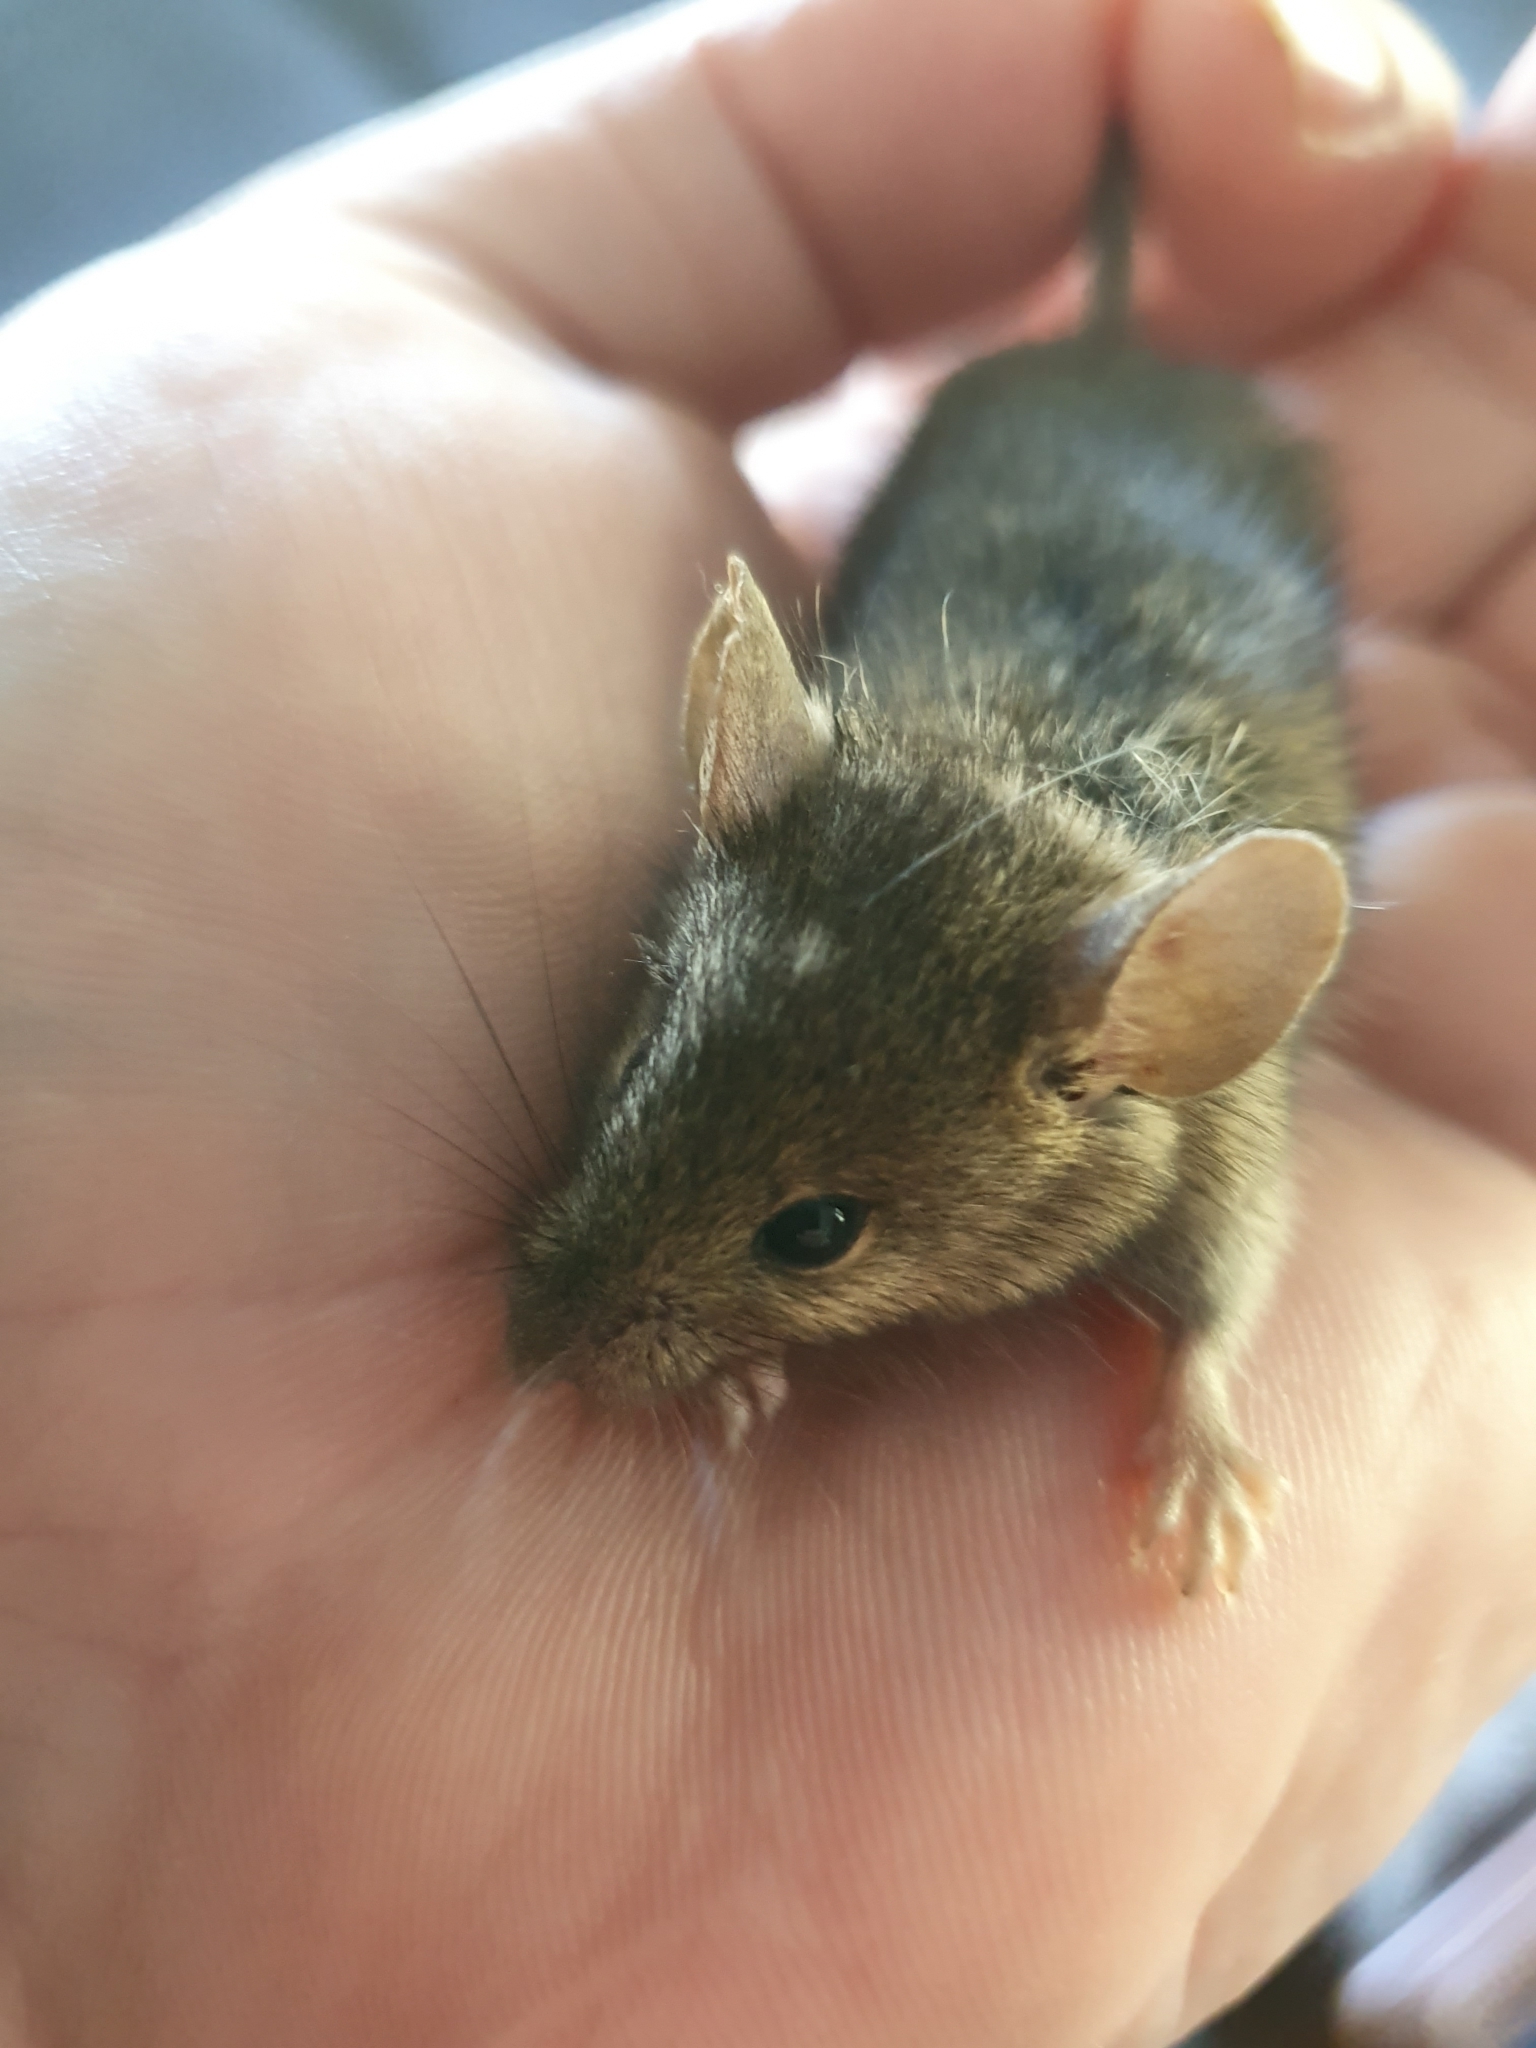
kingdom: Animalia
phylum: Chordata
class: Mammalia
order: Rodentia
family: Muridae
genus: Mus
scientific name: Mus musculus
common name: House mouse
